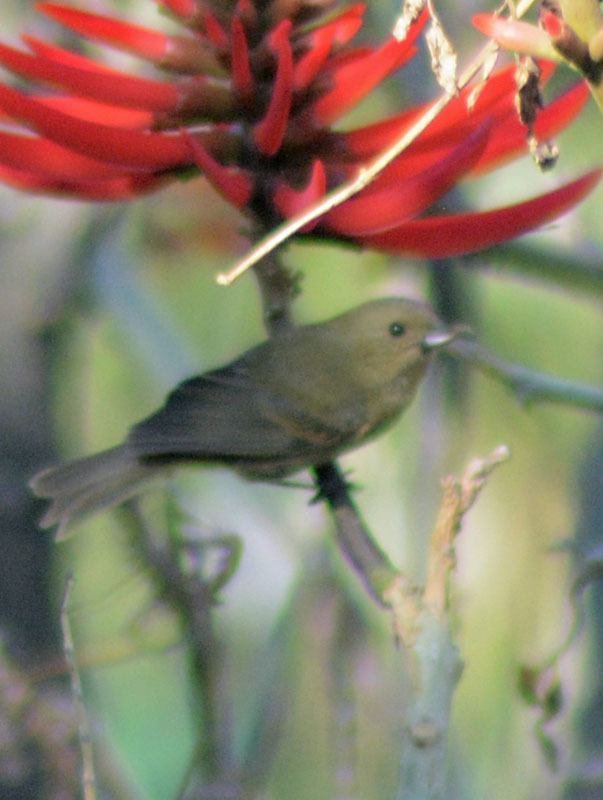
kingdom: Animalia
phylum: Chordata
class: Aves
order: Passeriformes
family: Thraupidae
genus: Diglossa
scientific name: Diglossa baritula
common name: Cinnamon-bellied flowerpiercer
